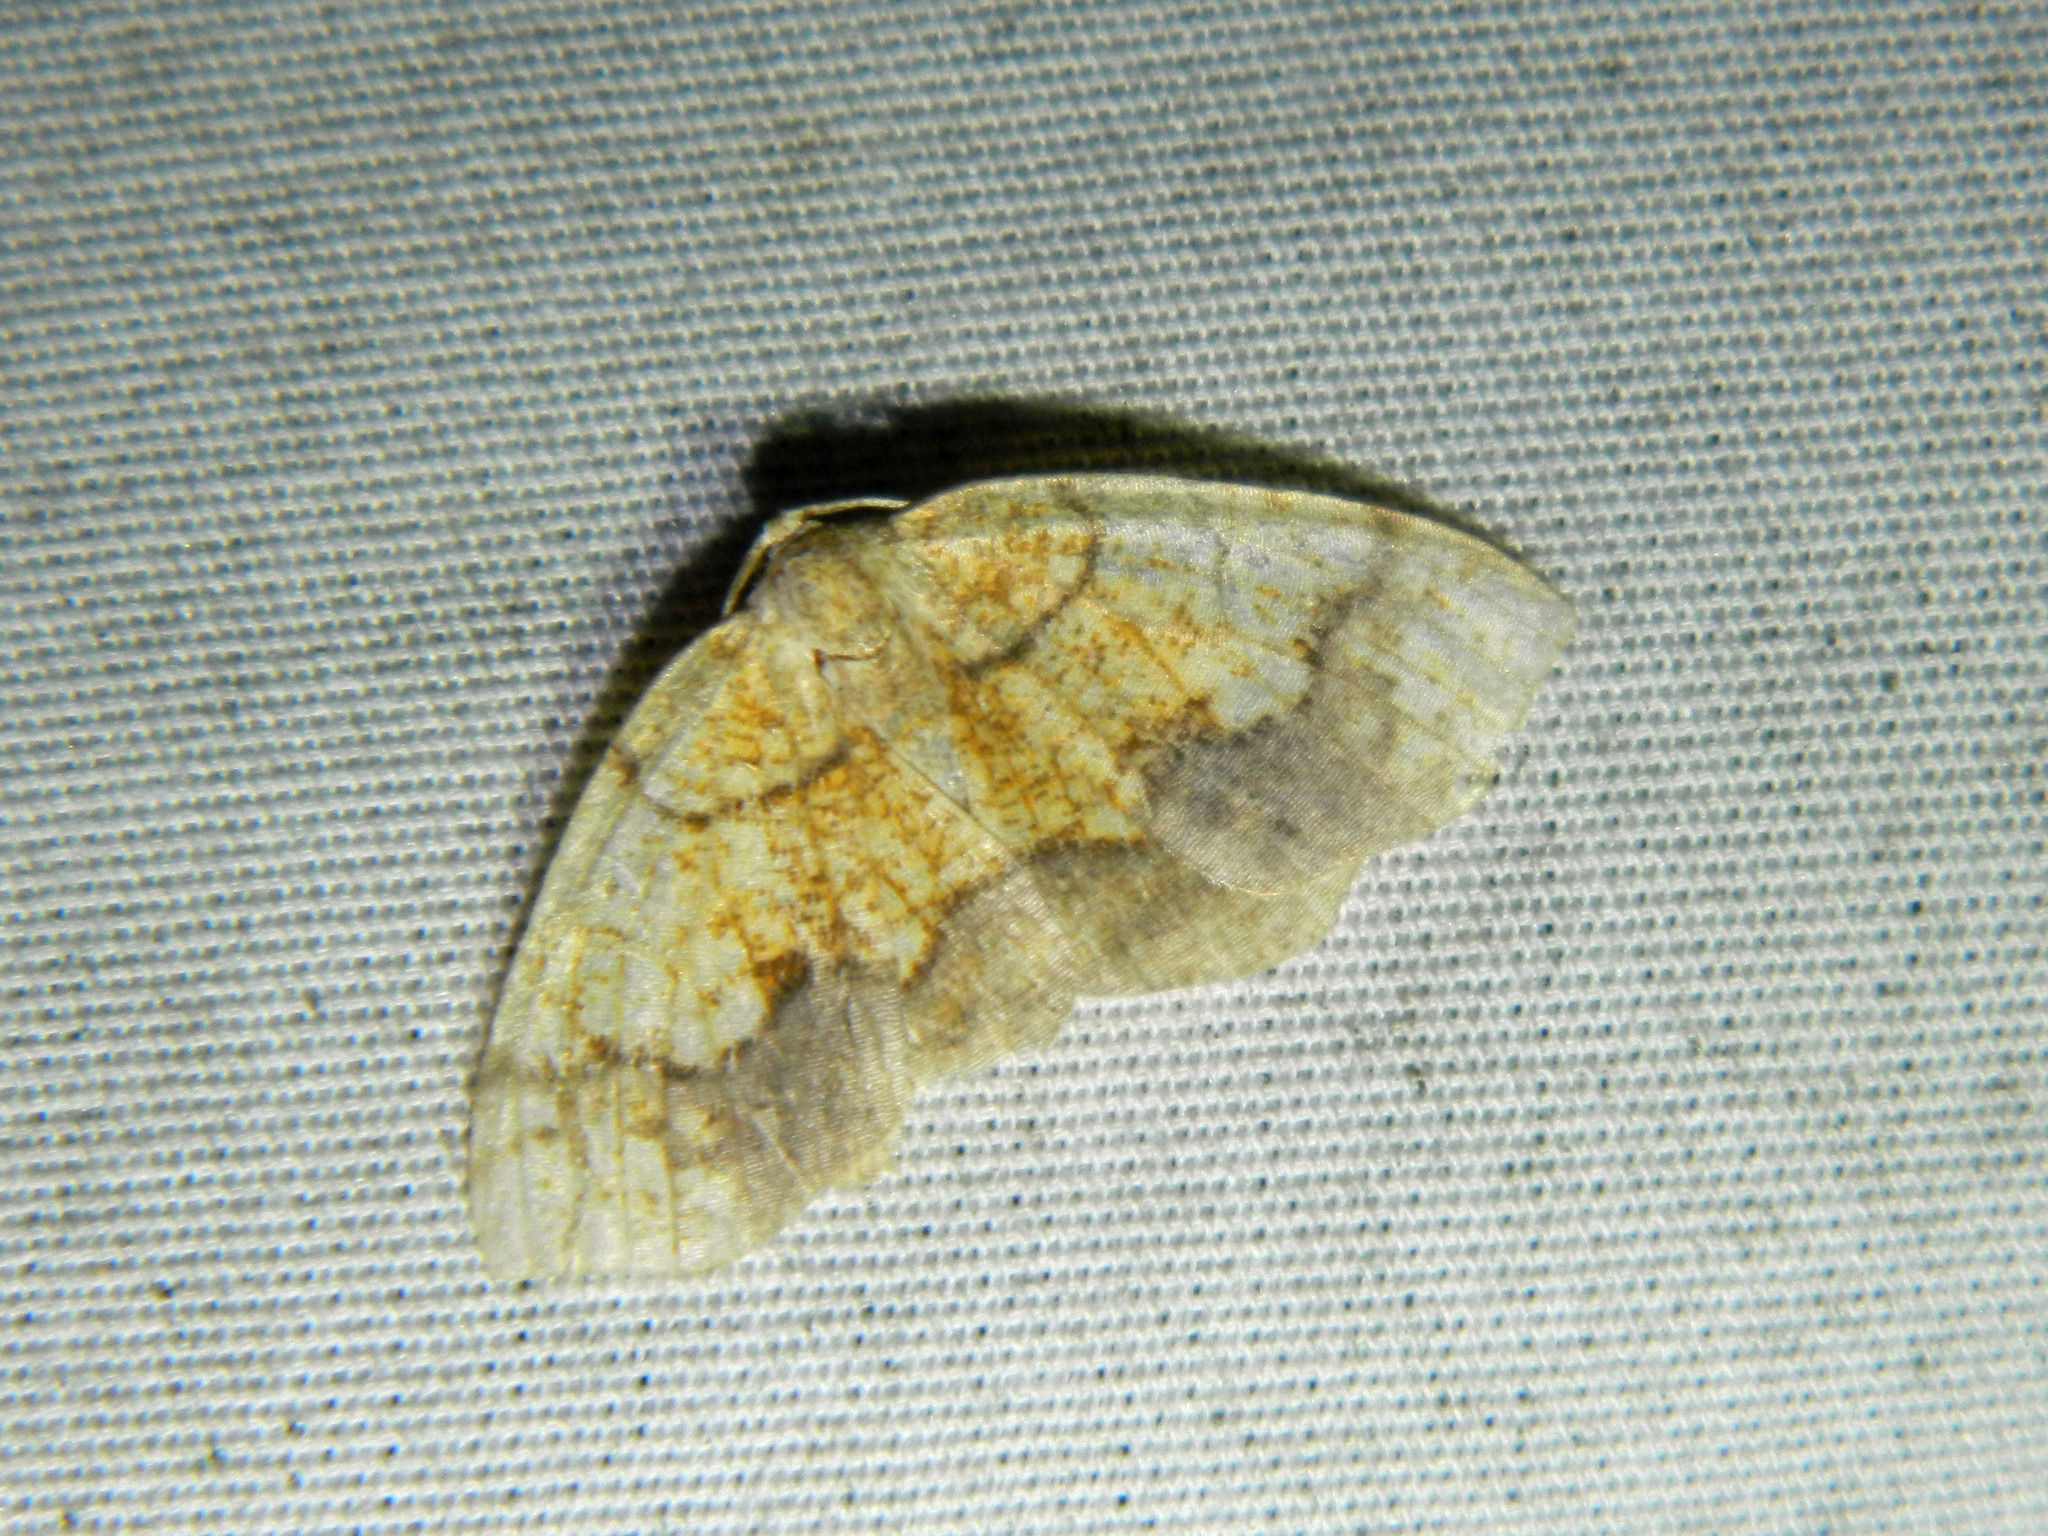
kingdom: Animalia
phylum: Arthropoda
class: Insecta
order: Lepidoptera
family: Geometridae
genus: Nematocampa
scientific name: Nematocampa resistaria
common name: Horned spanworm moth
